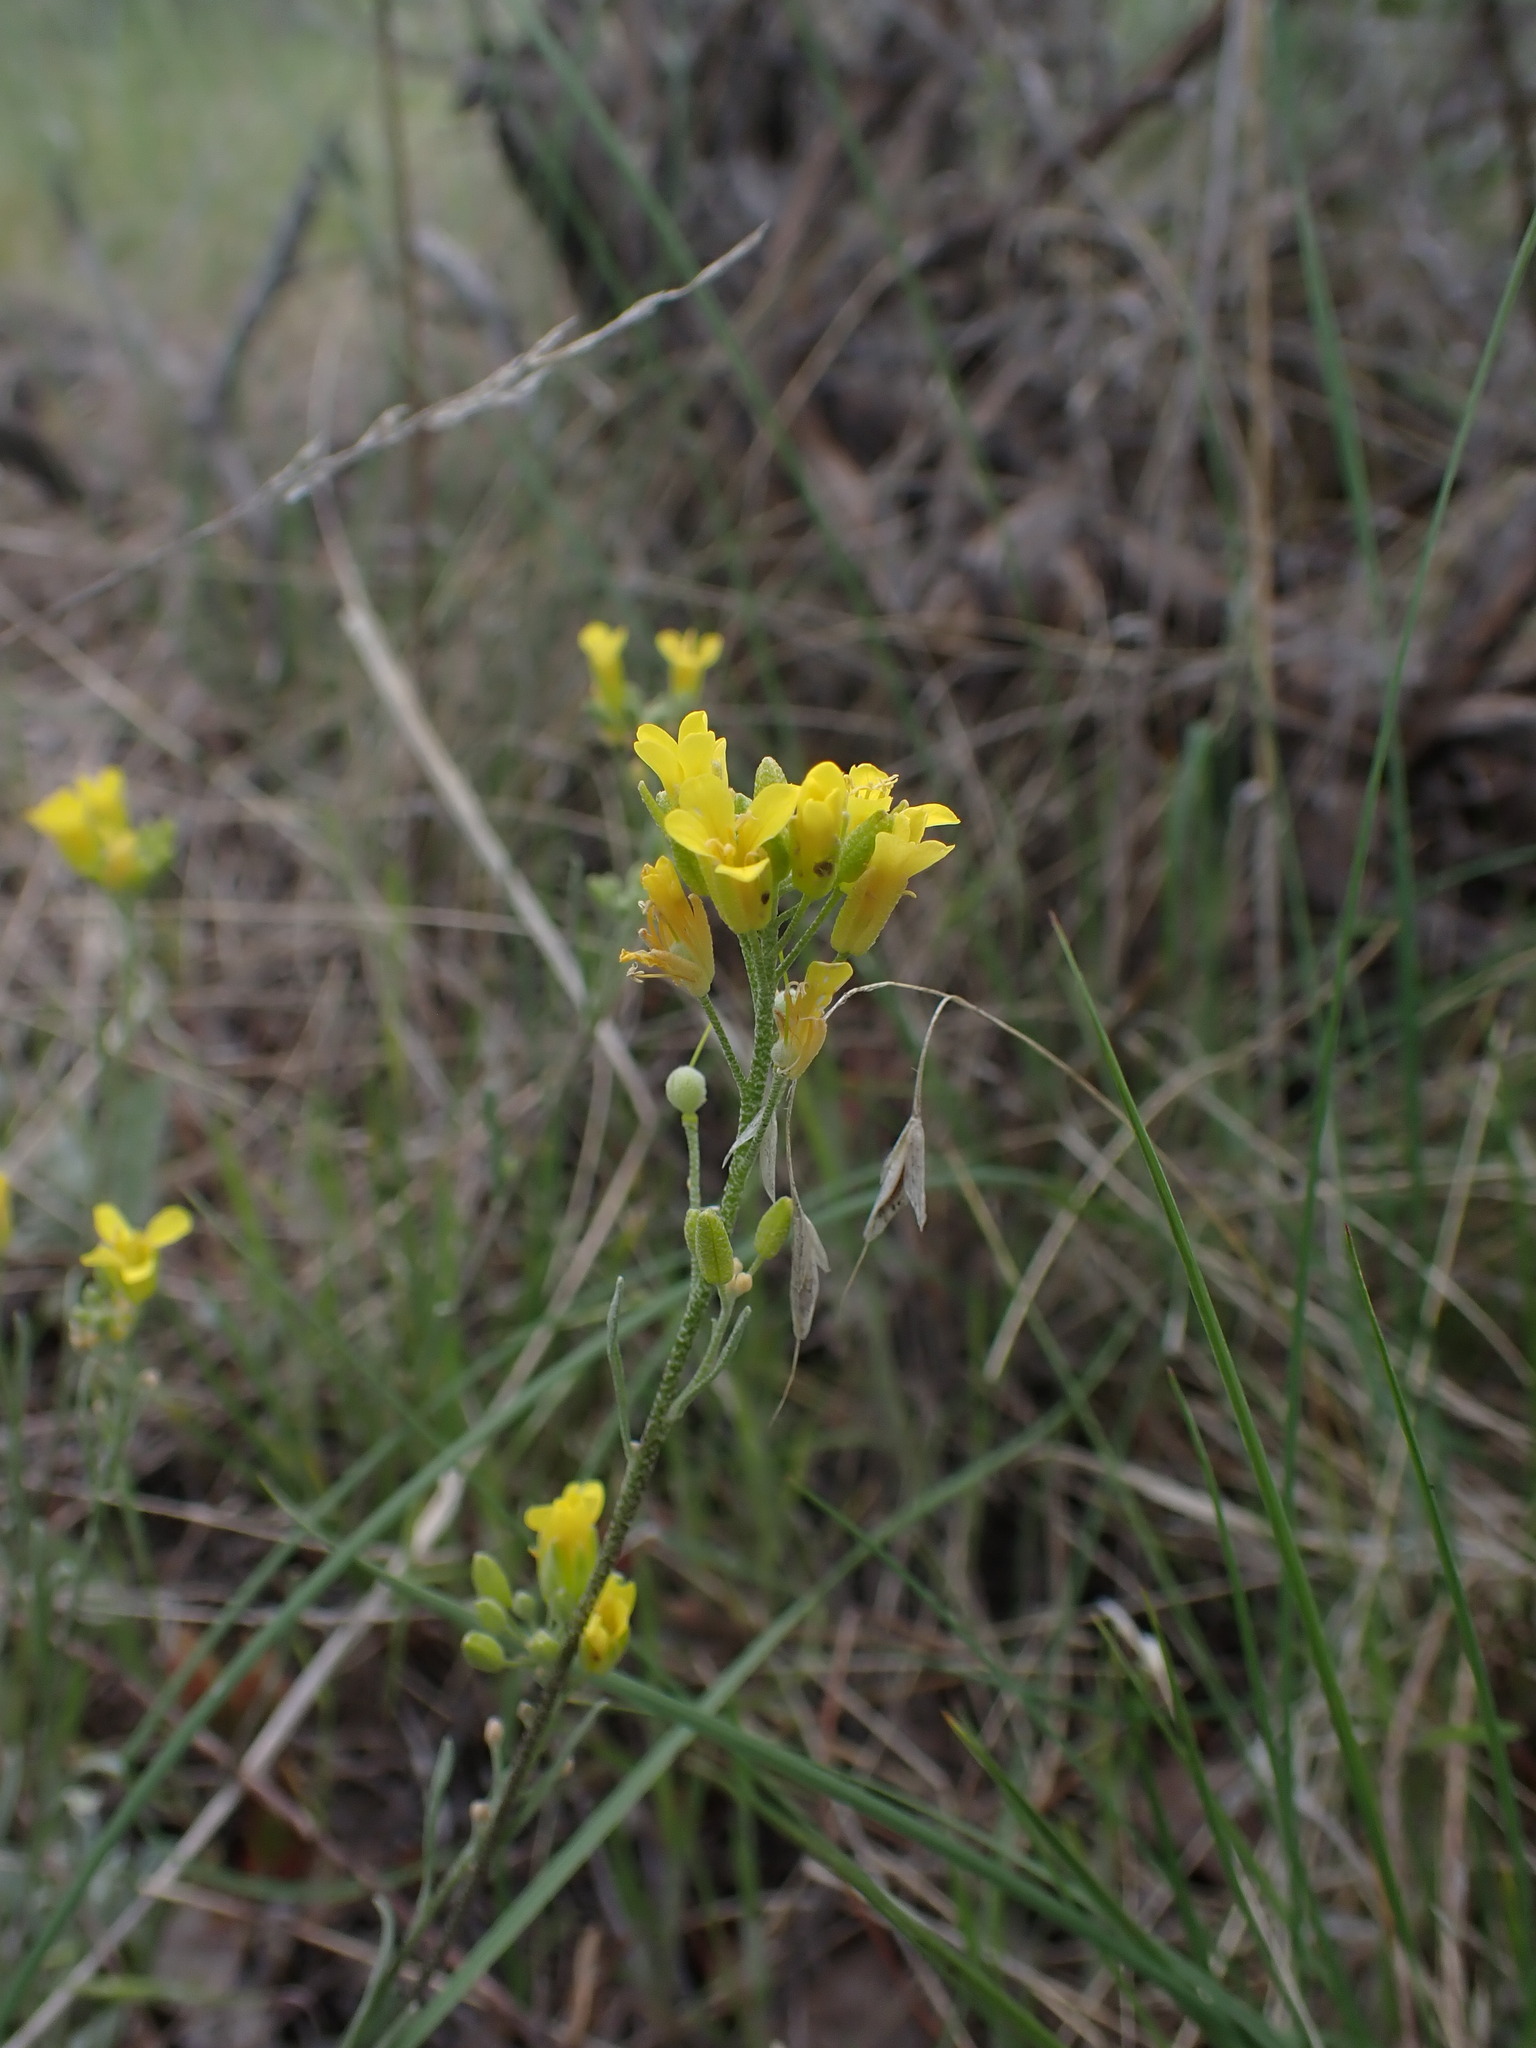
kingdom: Plantae
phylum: Tracheophyta
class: Magnoliopsida
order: Brassicales
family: Brassicaceae
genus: Physaria
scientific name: Physaria douglasii
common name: Douglas's bladderpod
